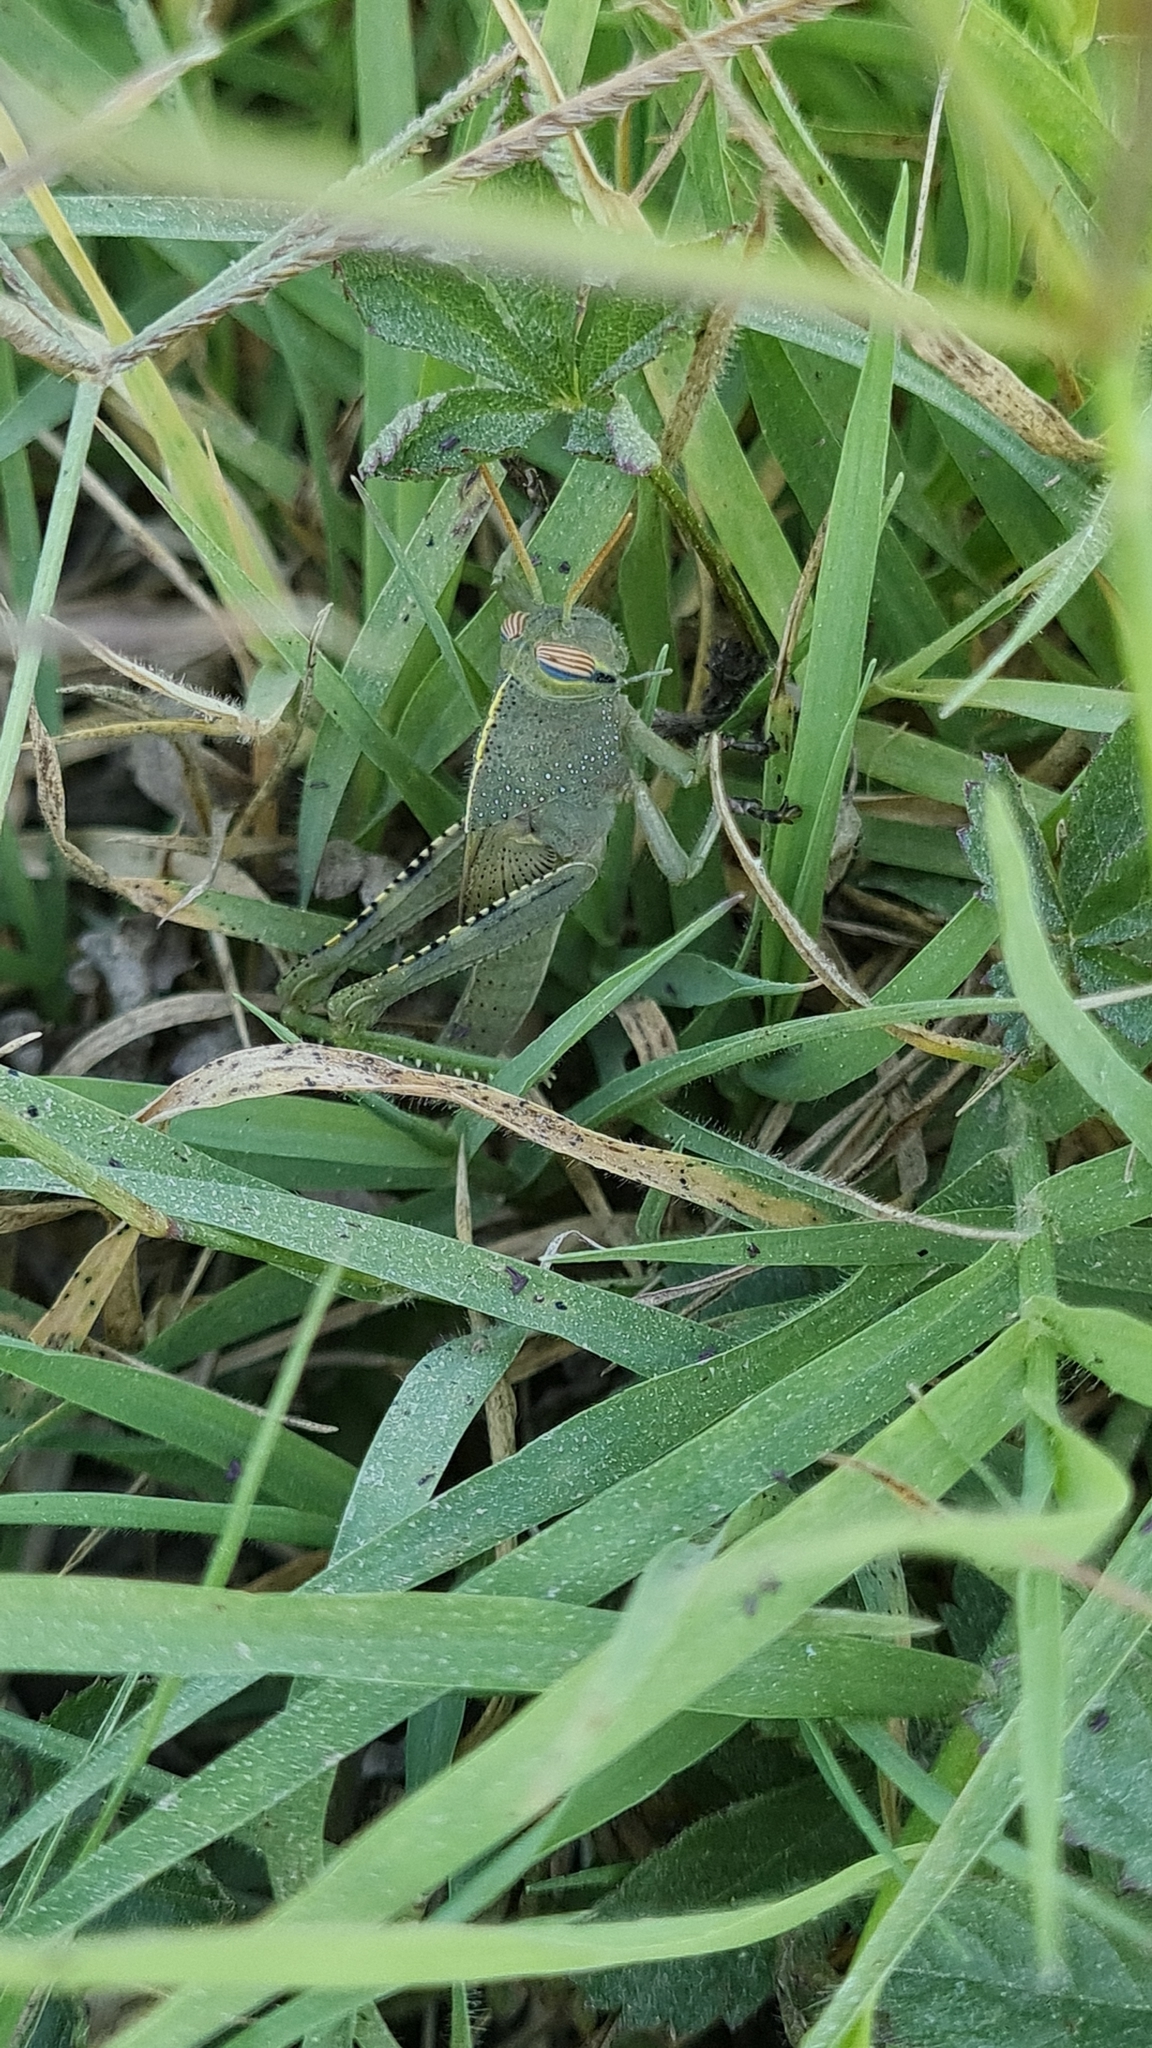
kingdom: Animalia
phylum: Arthropoda
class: Insecta
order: Orthoptera
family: Acrididae
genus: Anacridium
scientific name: Anacridium aegyptium
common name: Egyptian grasshopper
